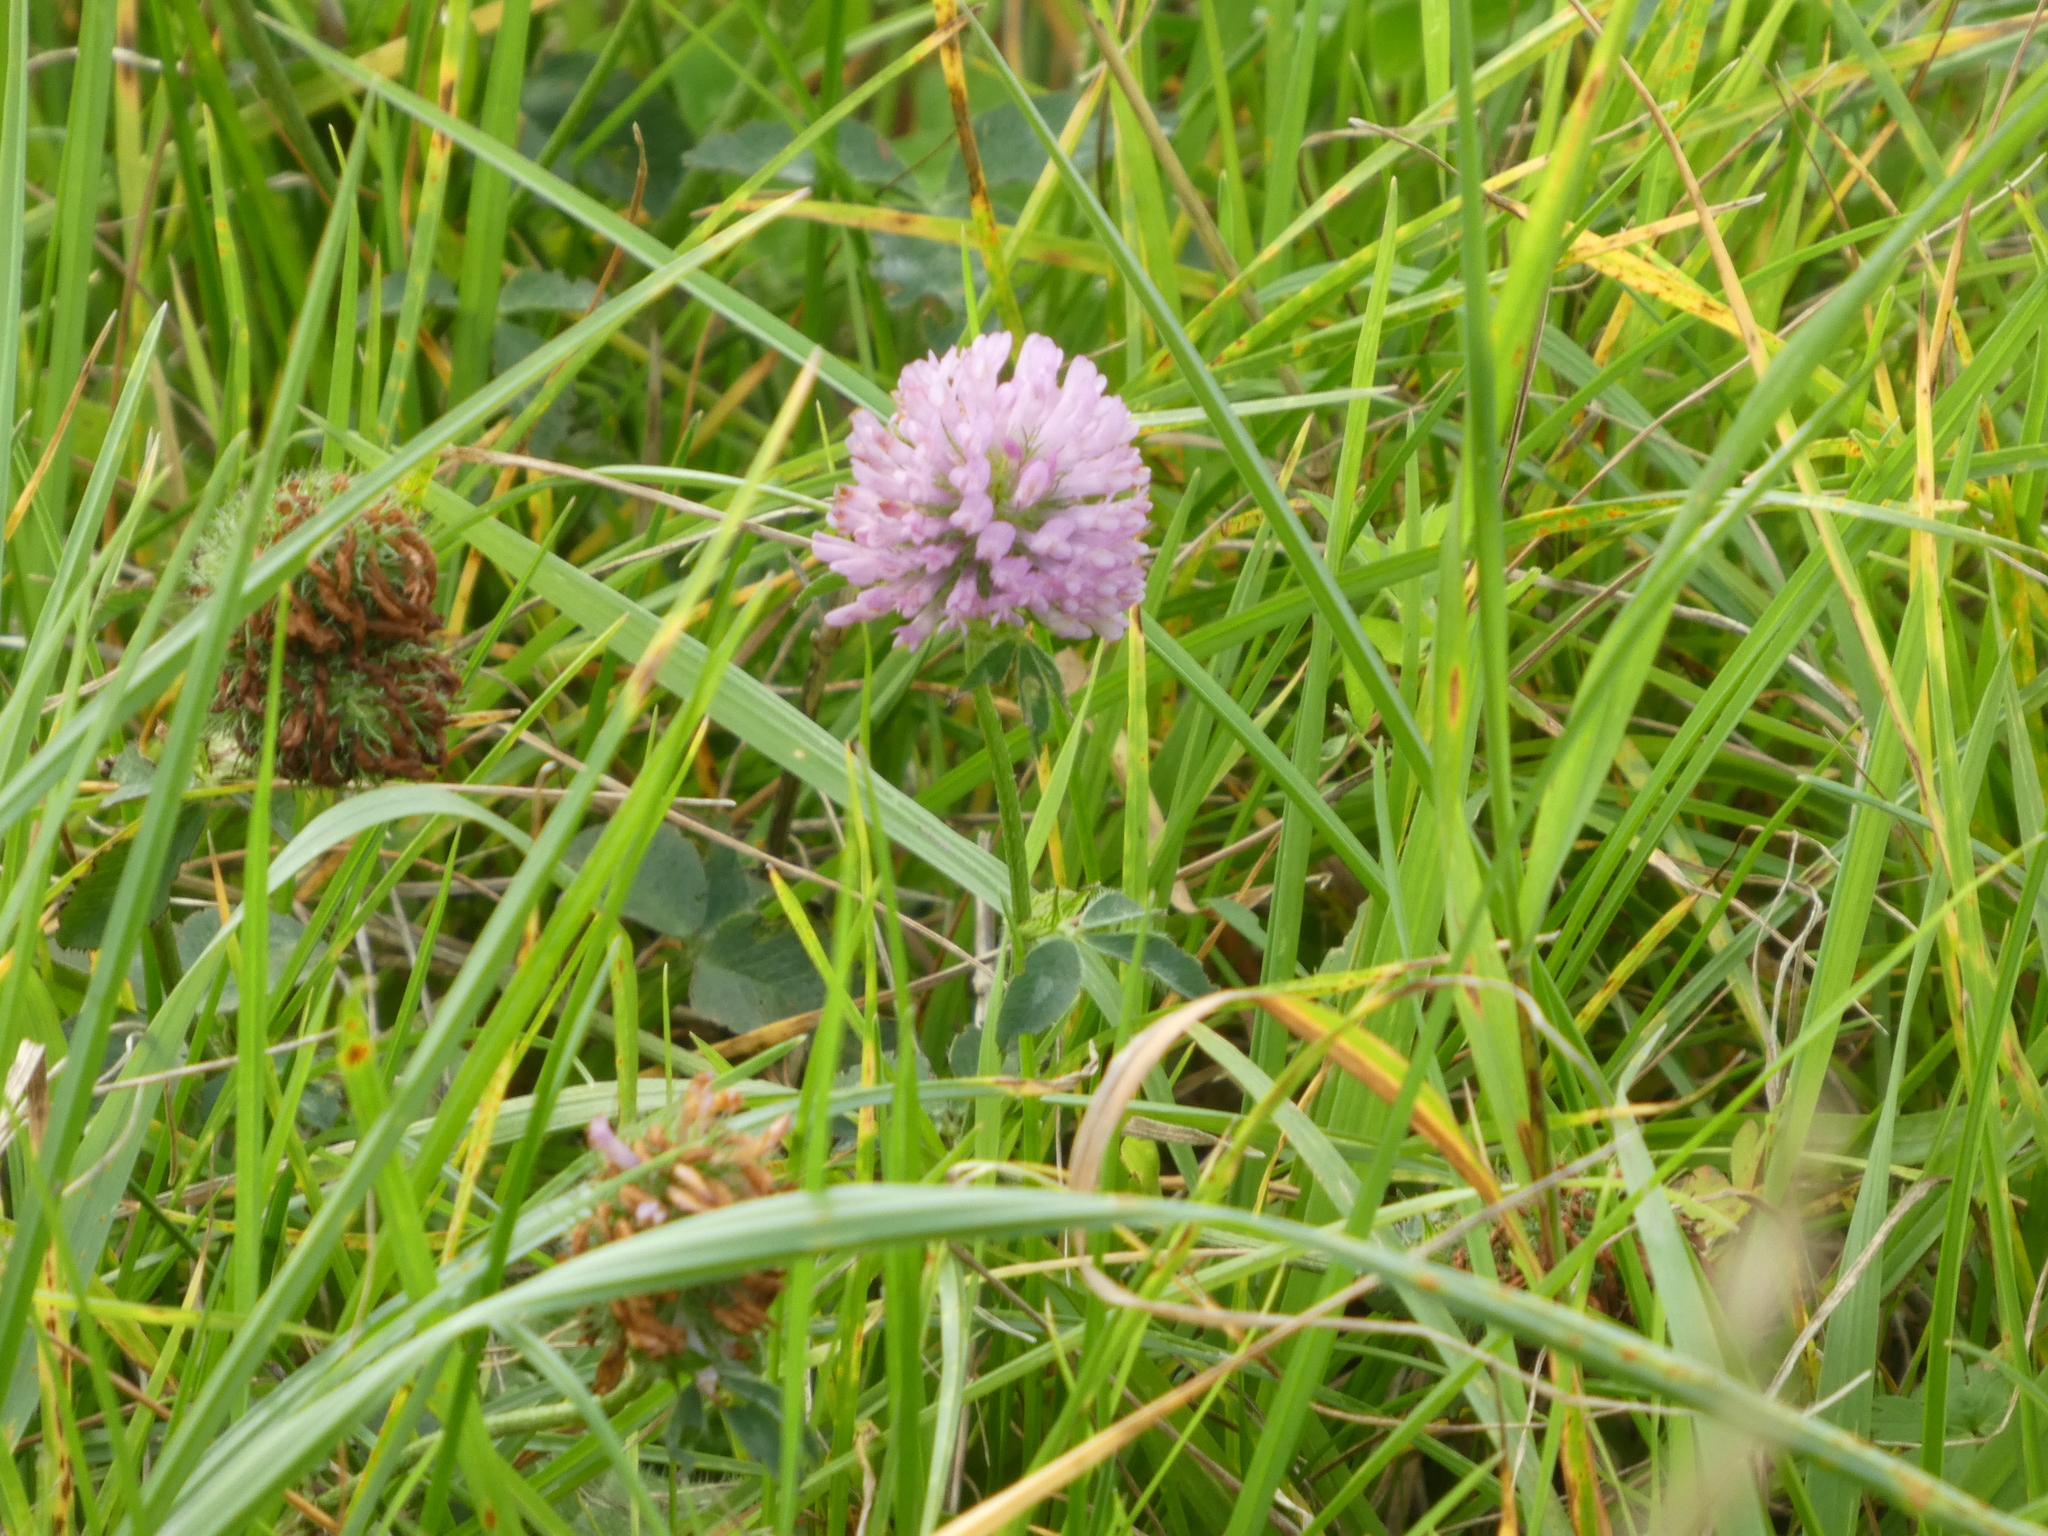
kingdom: Plantae
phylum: Tracheophyta
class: Magnoliopsida
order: Fabales
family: Fabaceae
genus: Trifolium
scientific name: Trifolium pratense
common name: Red clover
